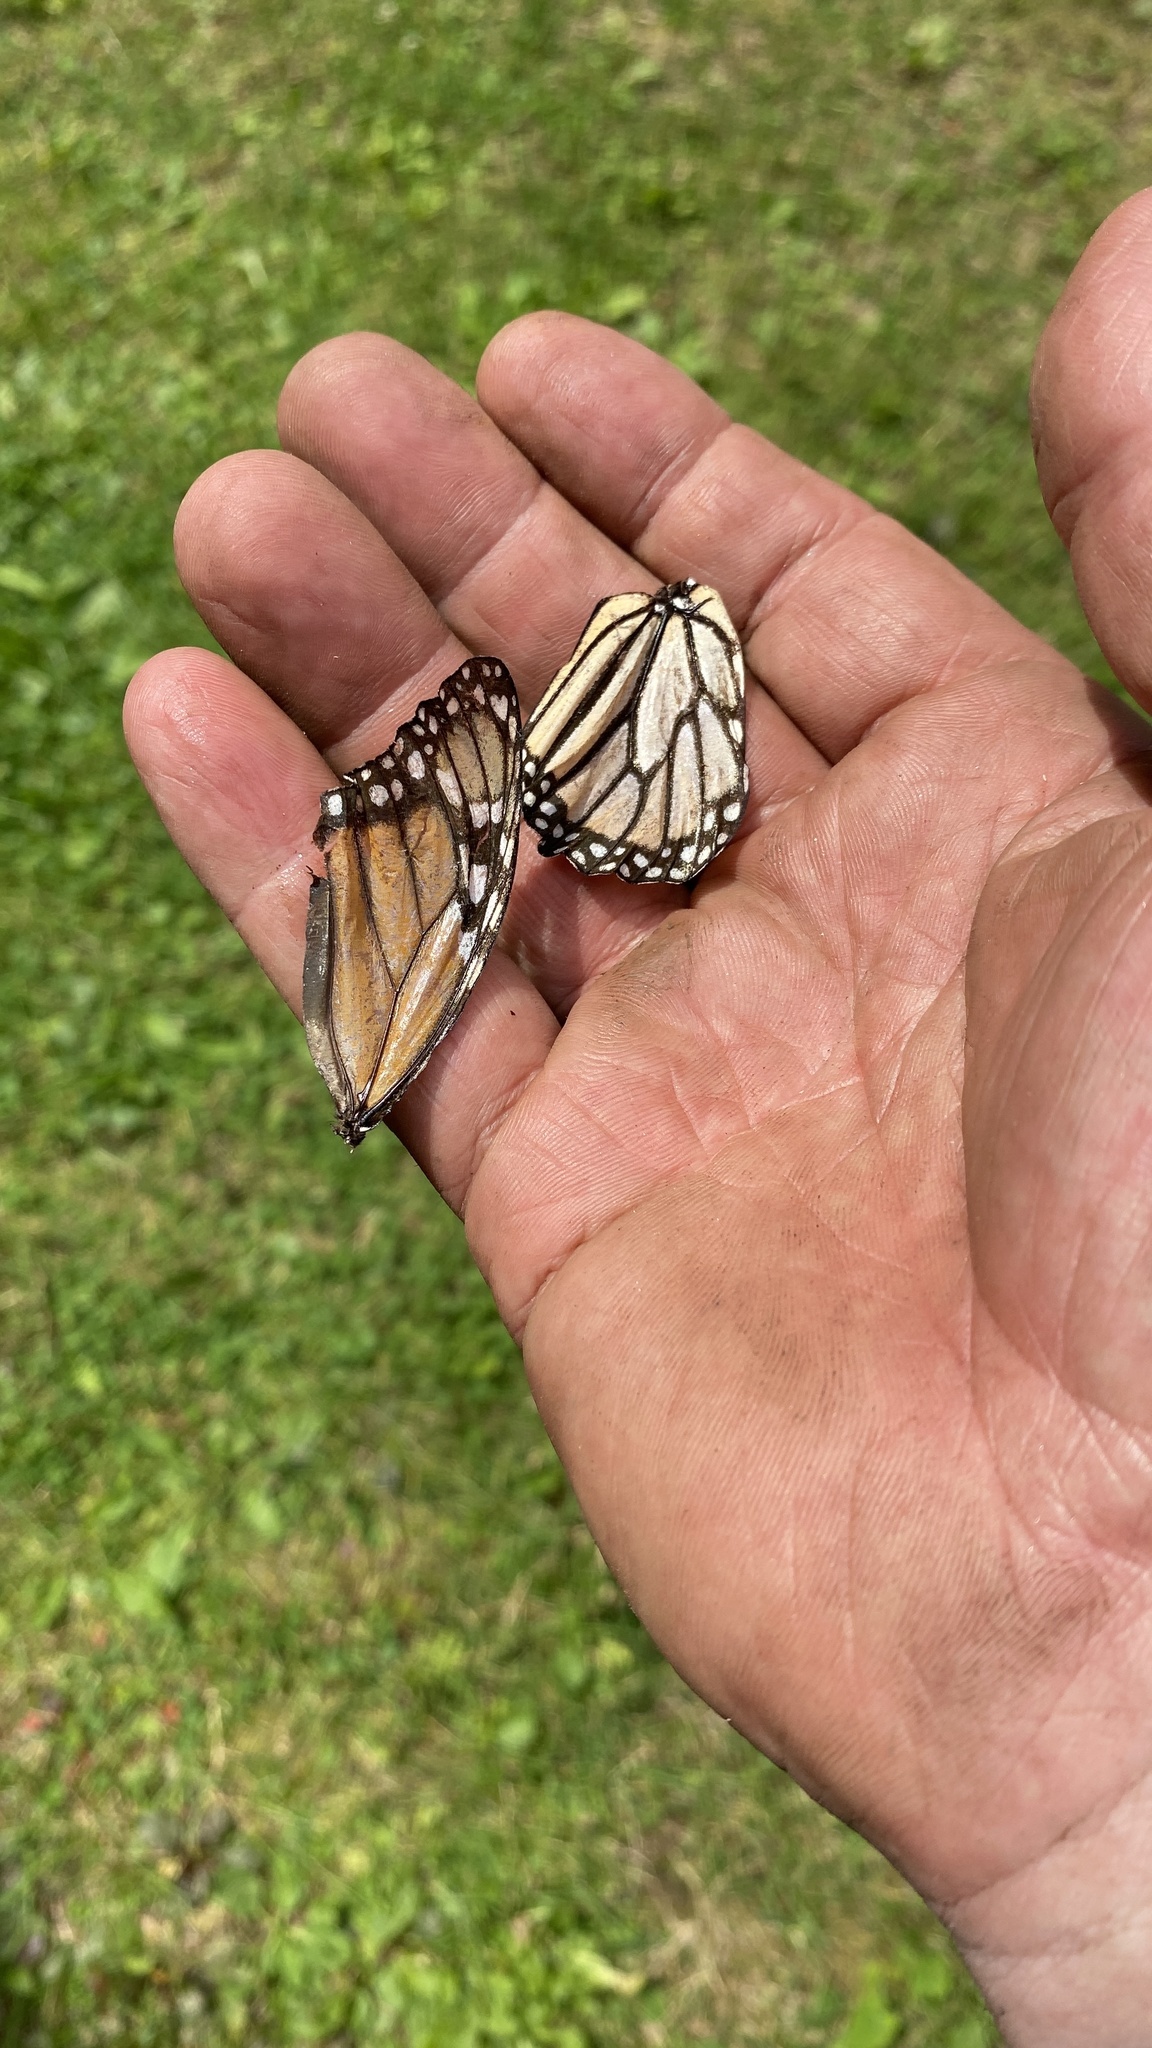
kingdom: Animalia
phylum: Arthropoda
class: Insecta
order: Lepidoptera
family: Nymphalidae
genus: Danaus
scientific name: Danaus plexippus
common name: Monarch
